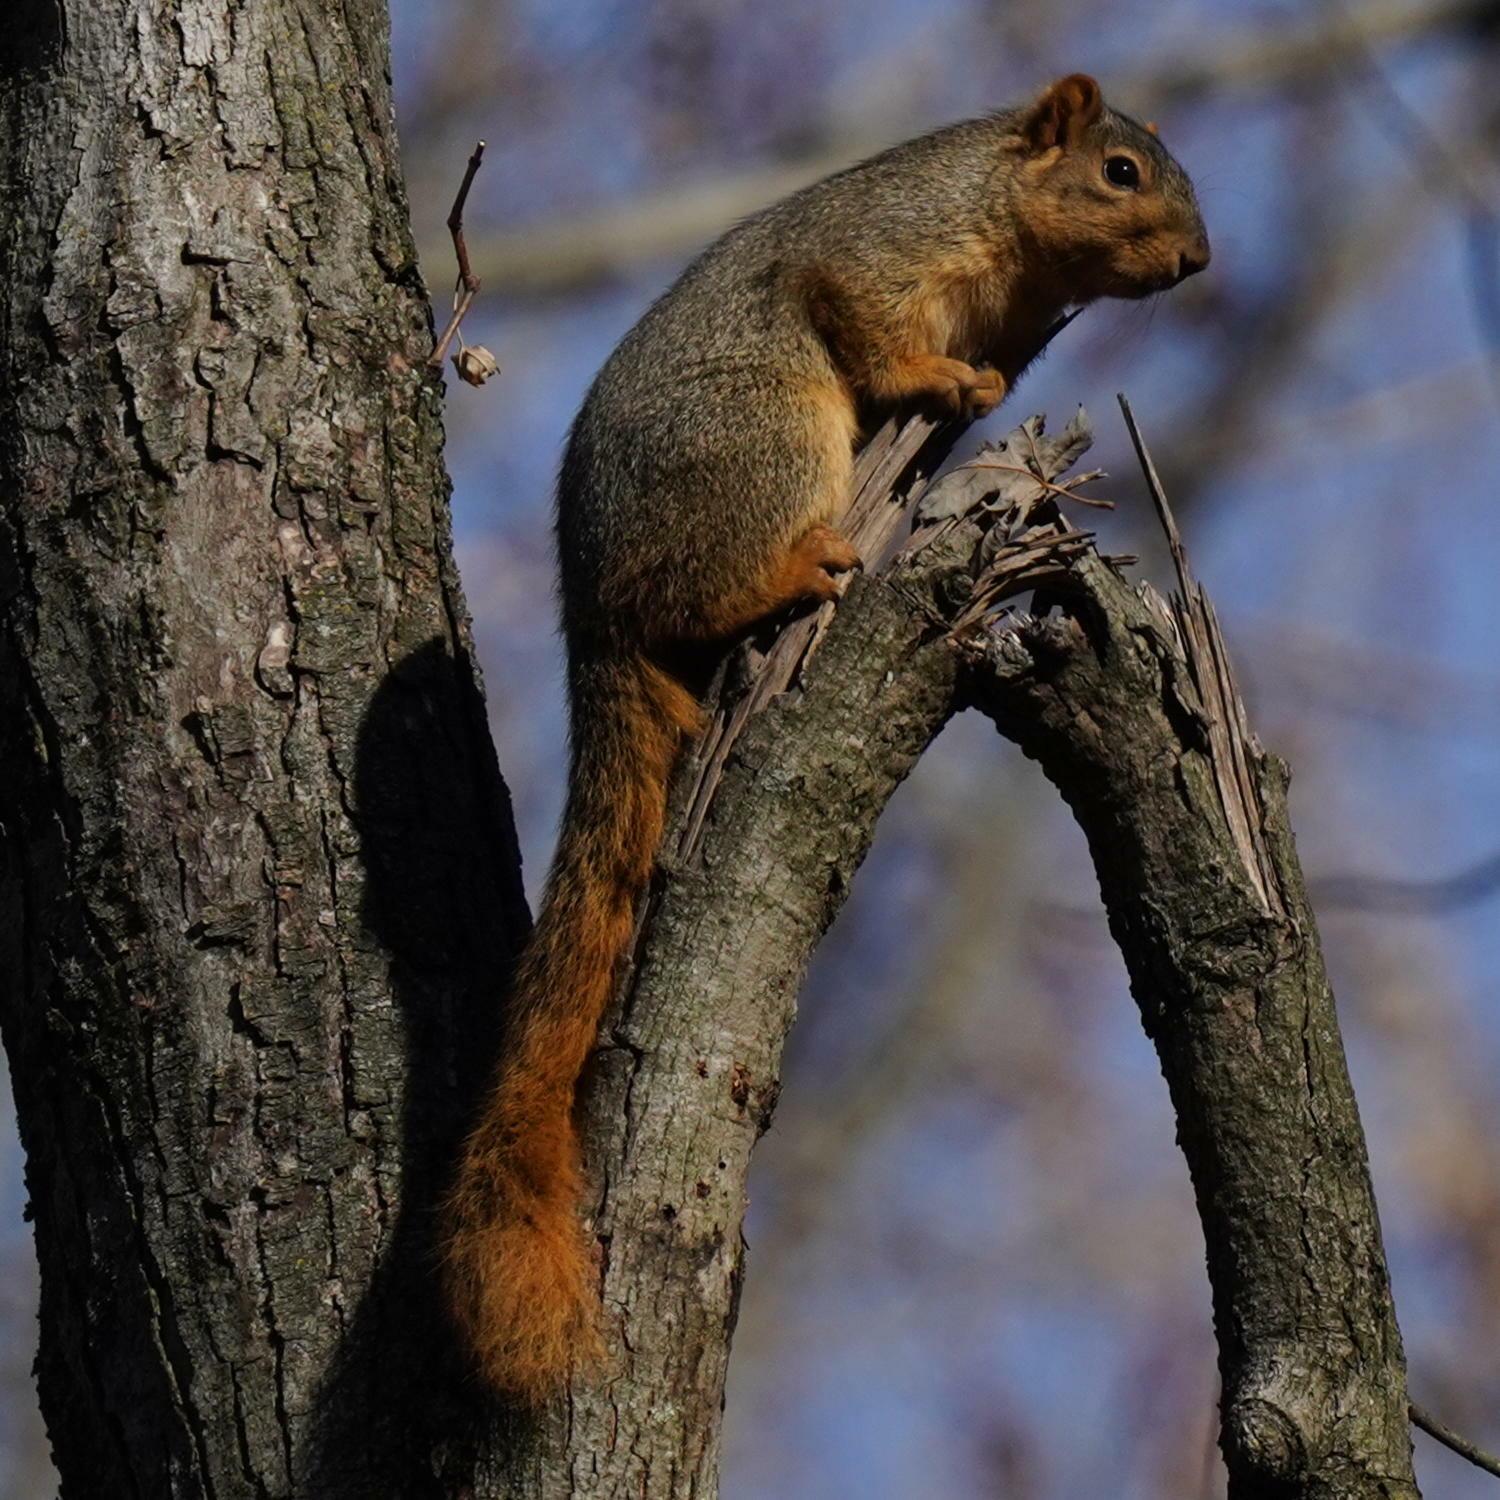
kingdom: Animalia
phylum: Chordata
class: Mammalia
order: Rodentia
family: Sciuridae
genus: Sciurus
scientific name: Sciurus niger
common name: Fox squirrel
